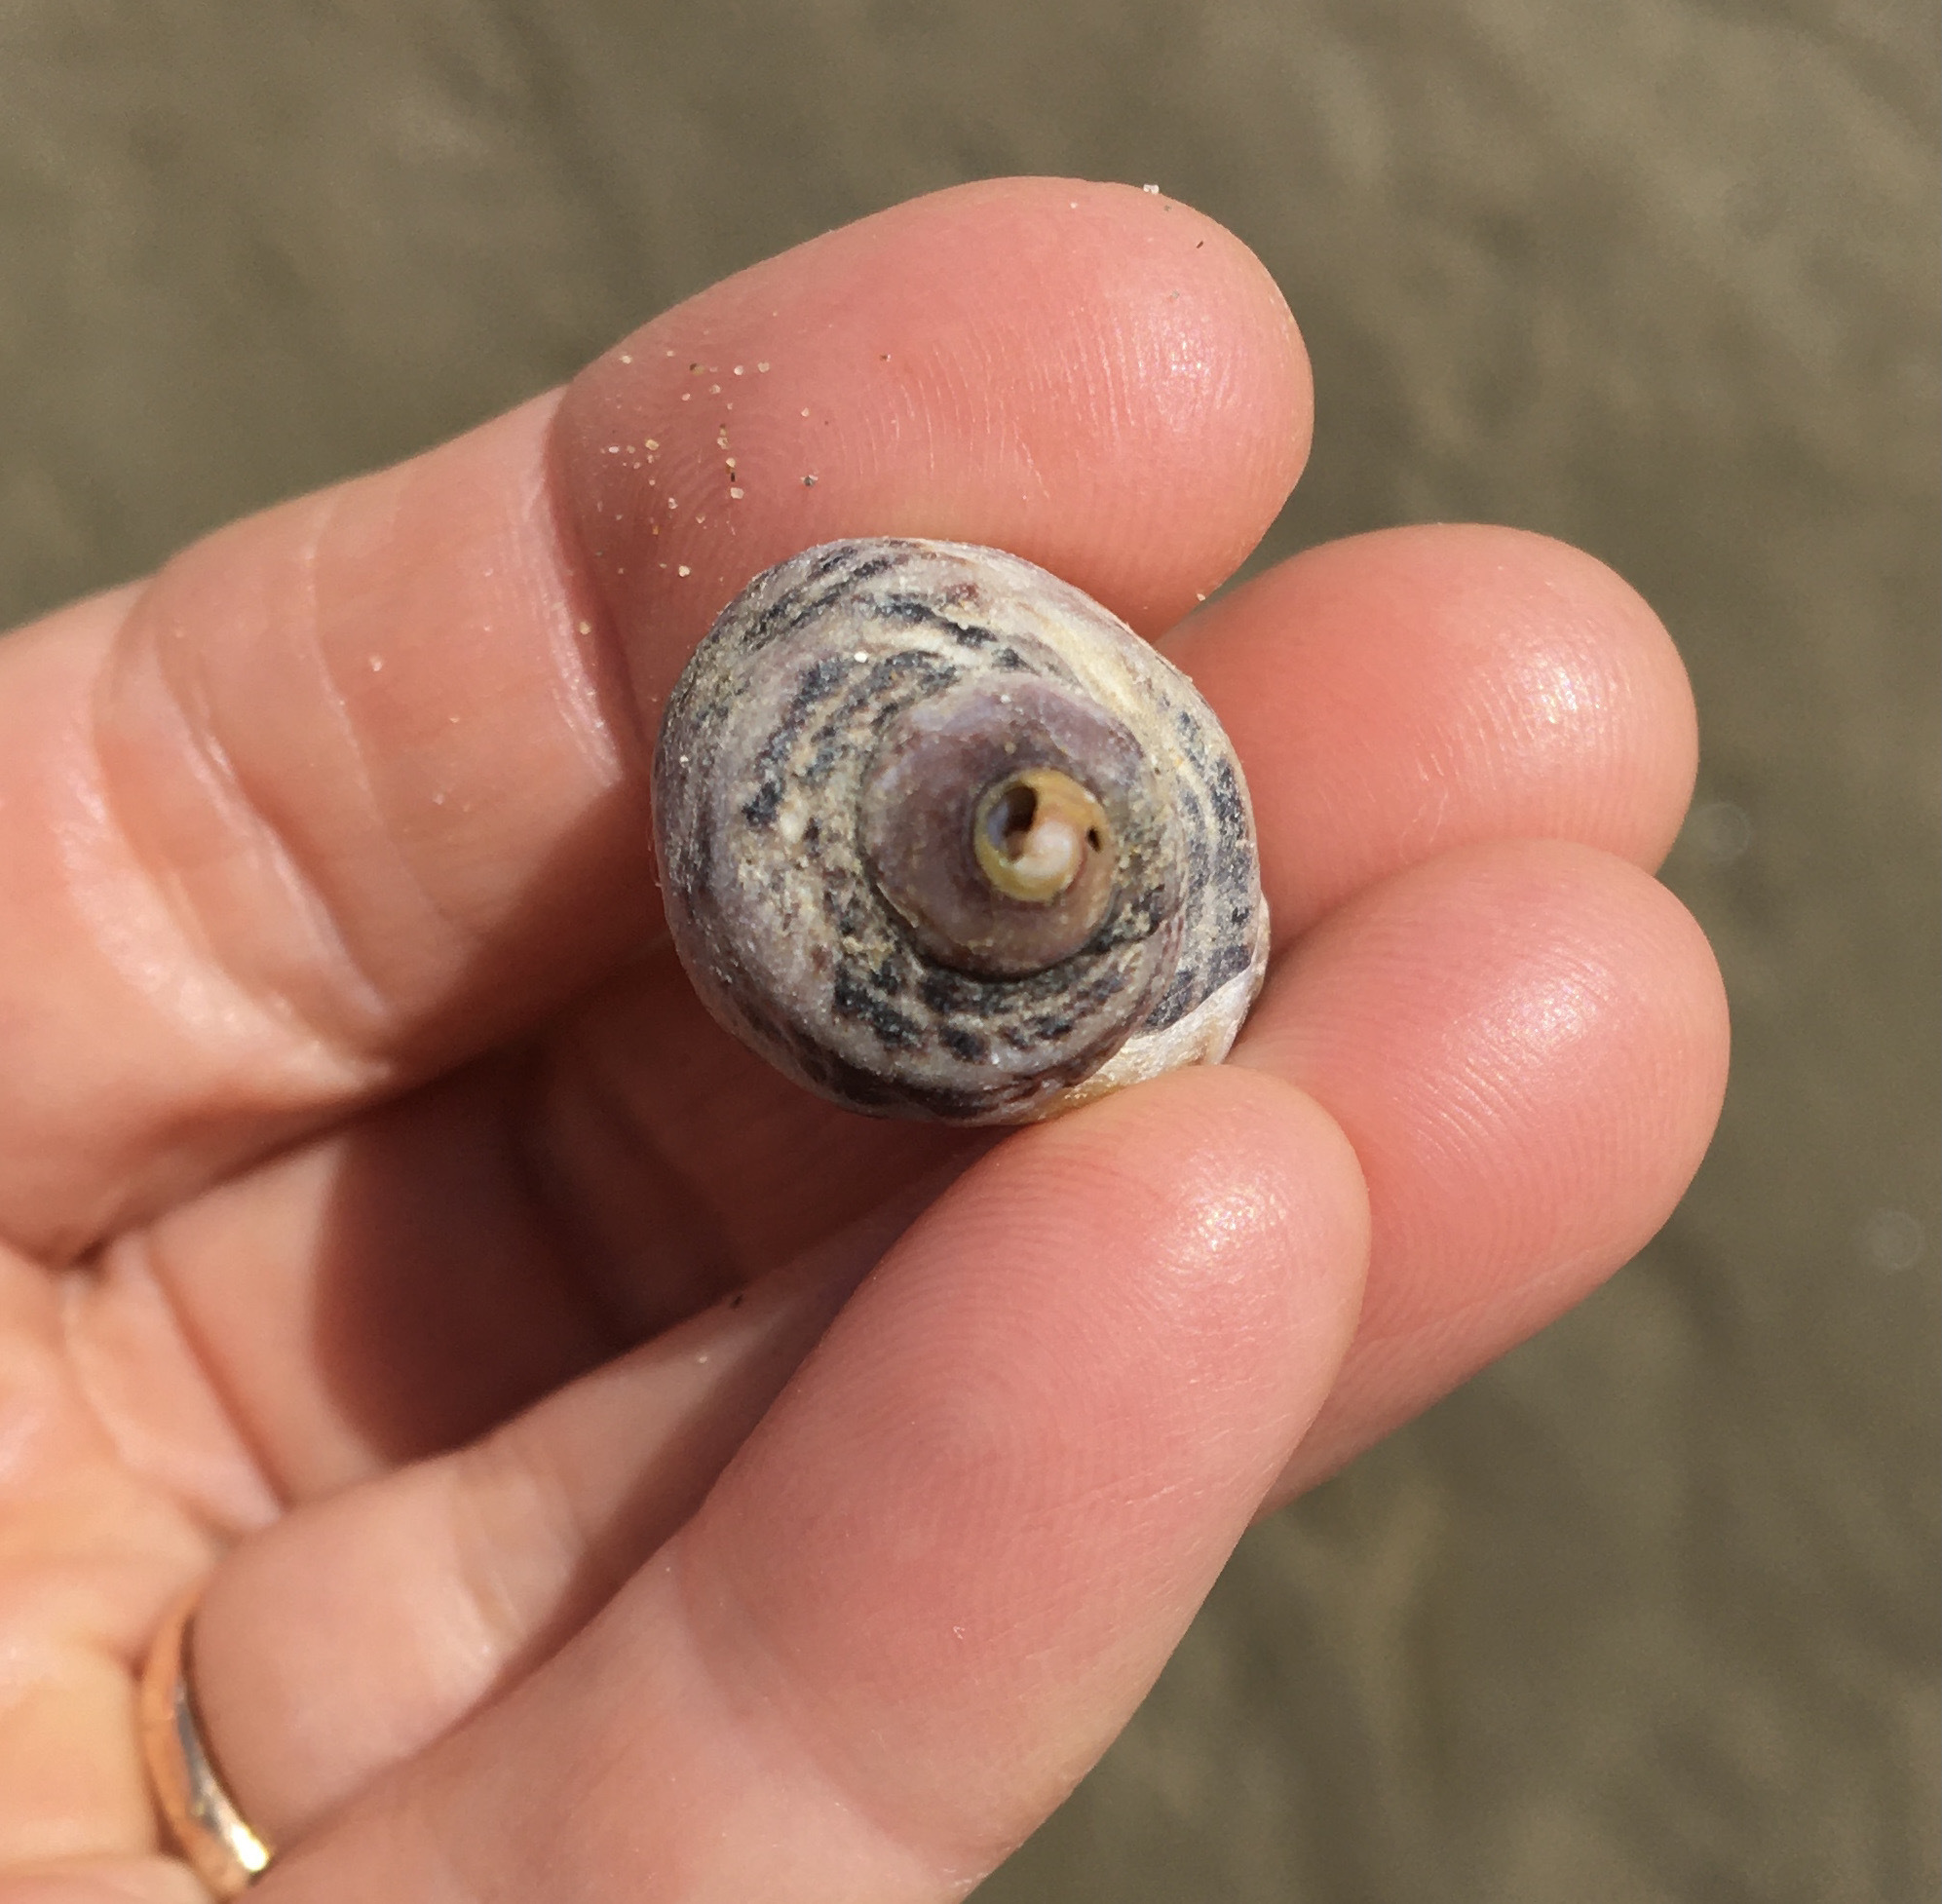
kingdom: Animalia
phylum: Mollusca
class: Gastropoda
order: Neogastropoda
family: Muricidae
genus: Acanthinucella
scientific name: Acanthinucella punctulata
